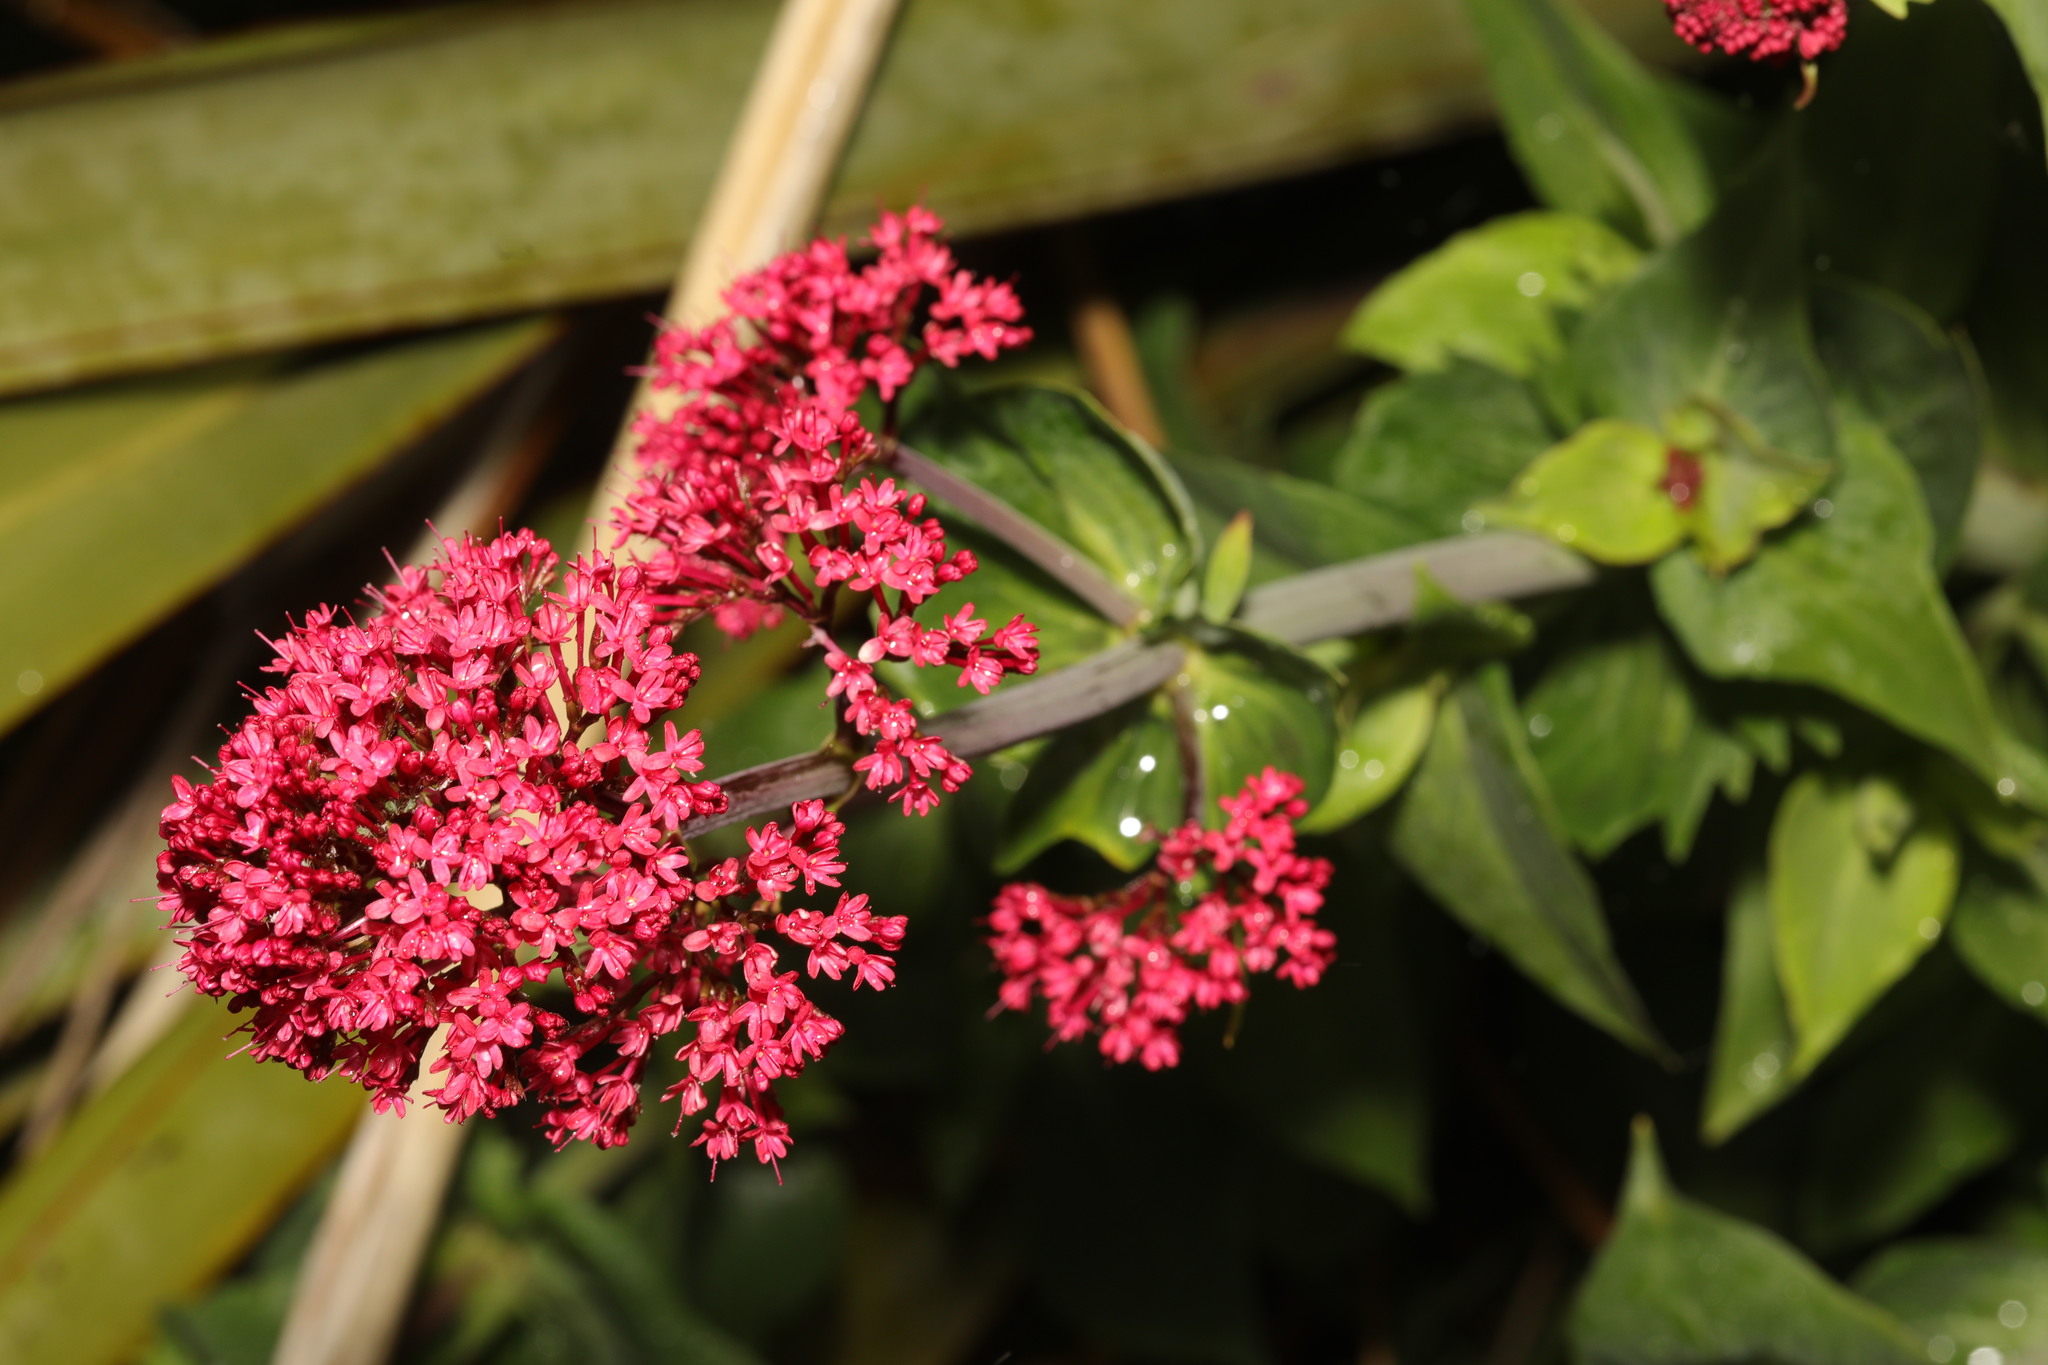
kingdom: Plantae
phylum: Tracheophyta
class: Magnoliopsida
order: Dipsacales
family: Caprifoliaceae
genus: Centranthus
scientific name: Centranthus ruber
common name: Red valerian
